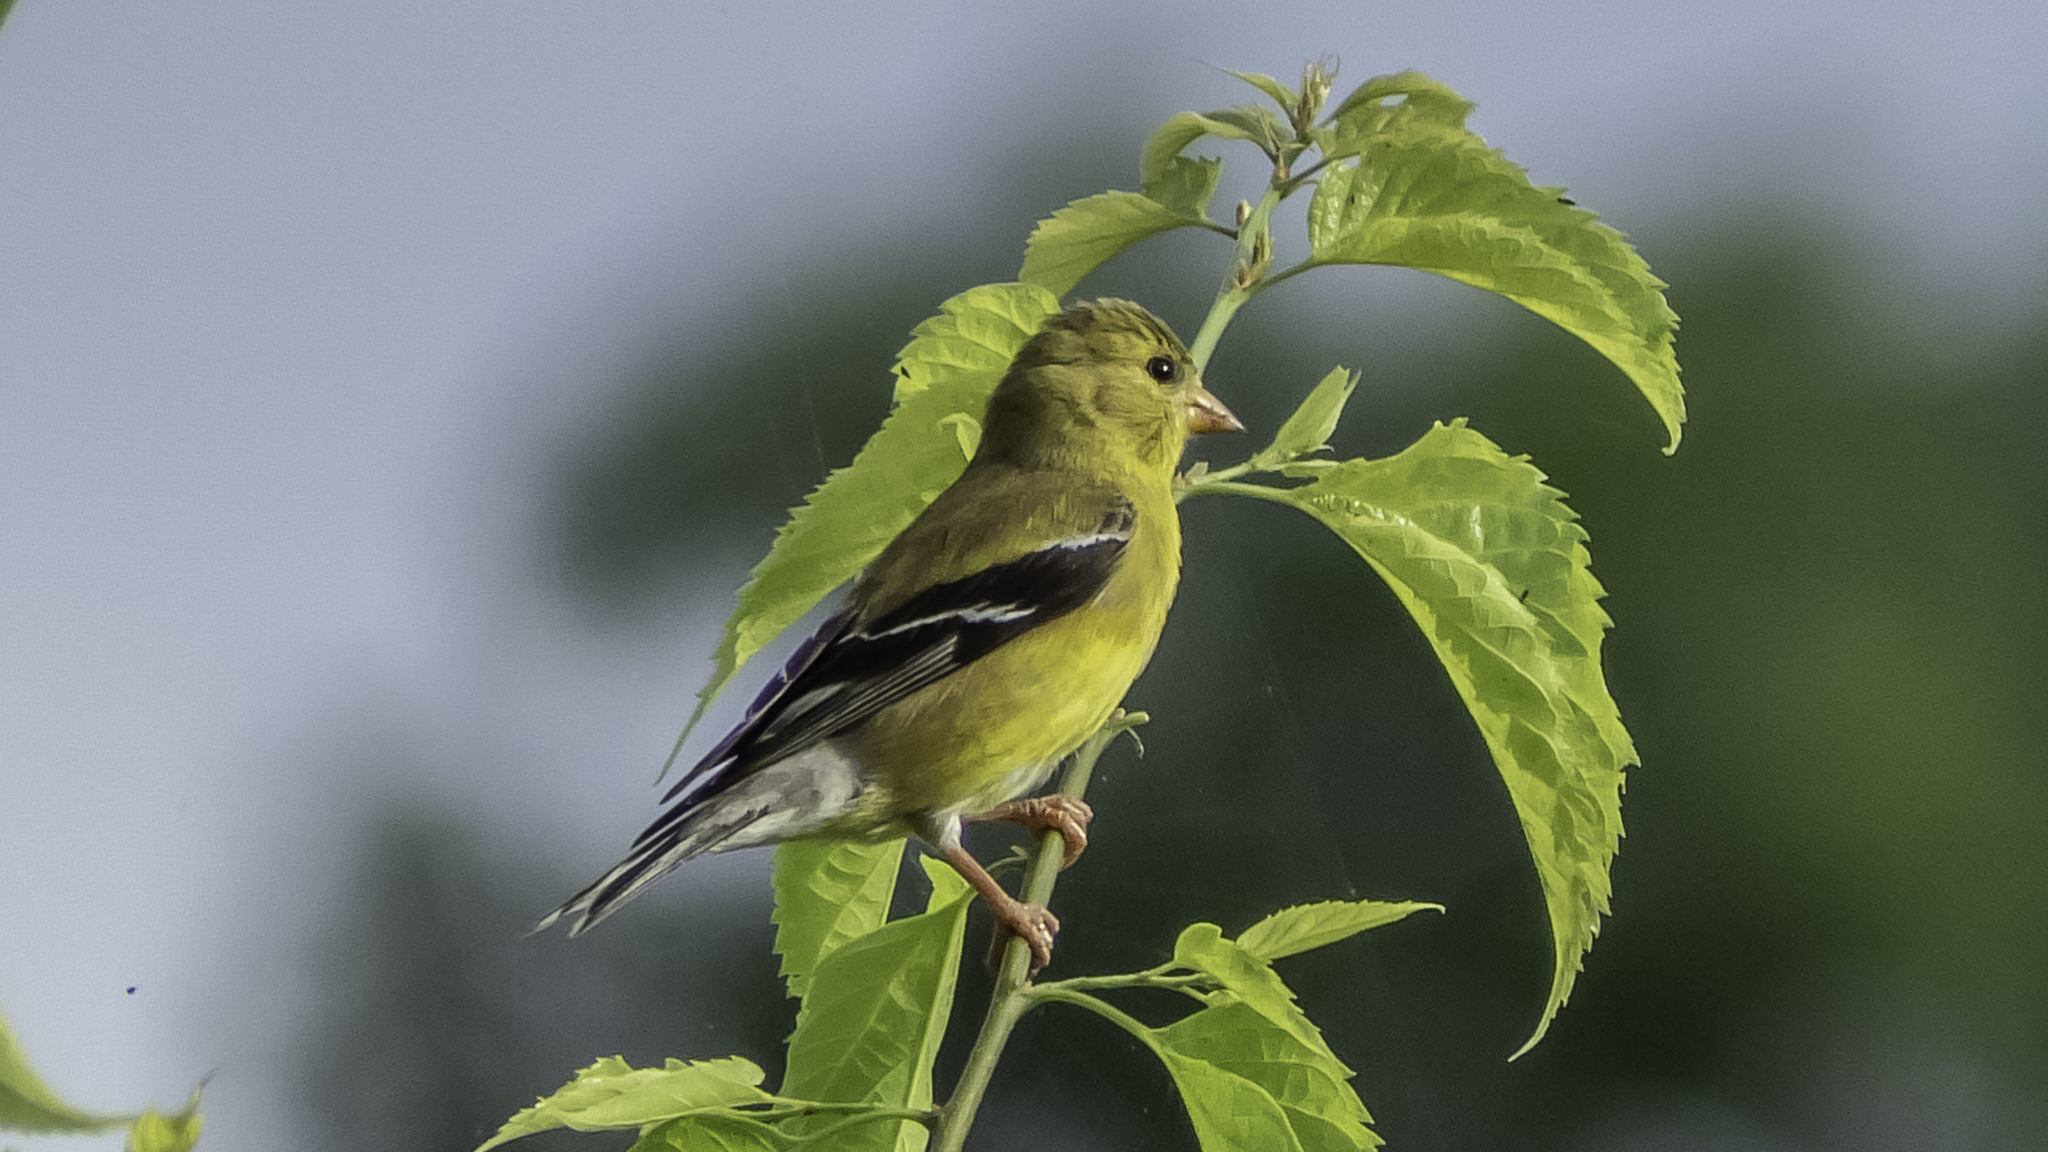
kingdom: Animalia
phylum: Chordata
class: Aves
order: Passeriformes
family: Fringillidae
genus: Spinus
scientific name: Spinus tristis
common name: American goldfinch
